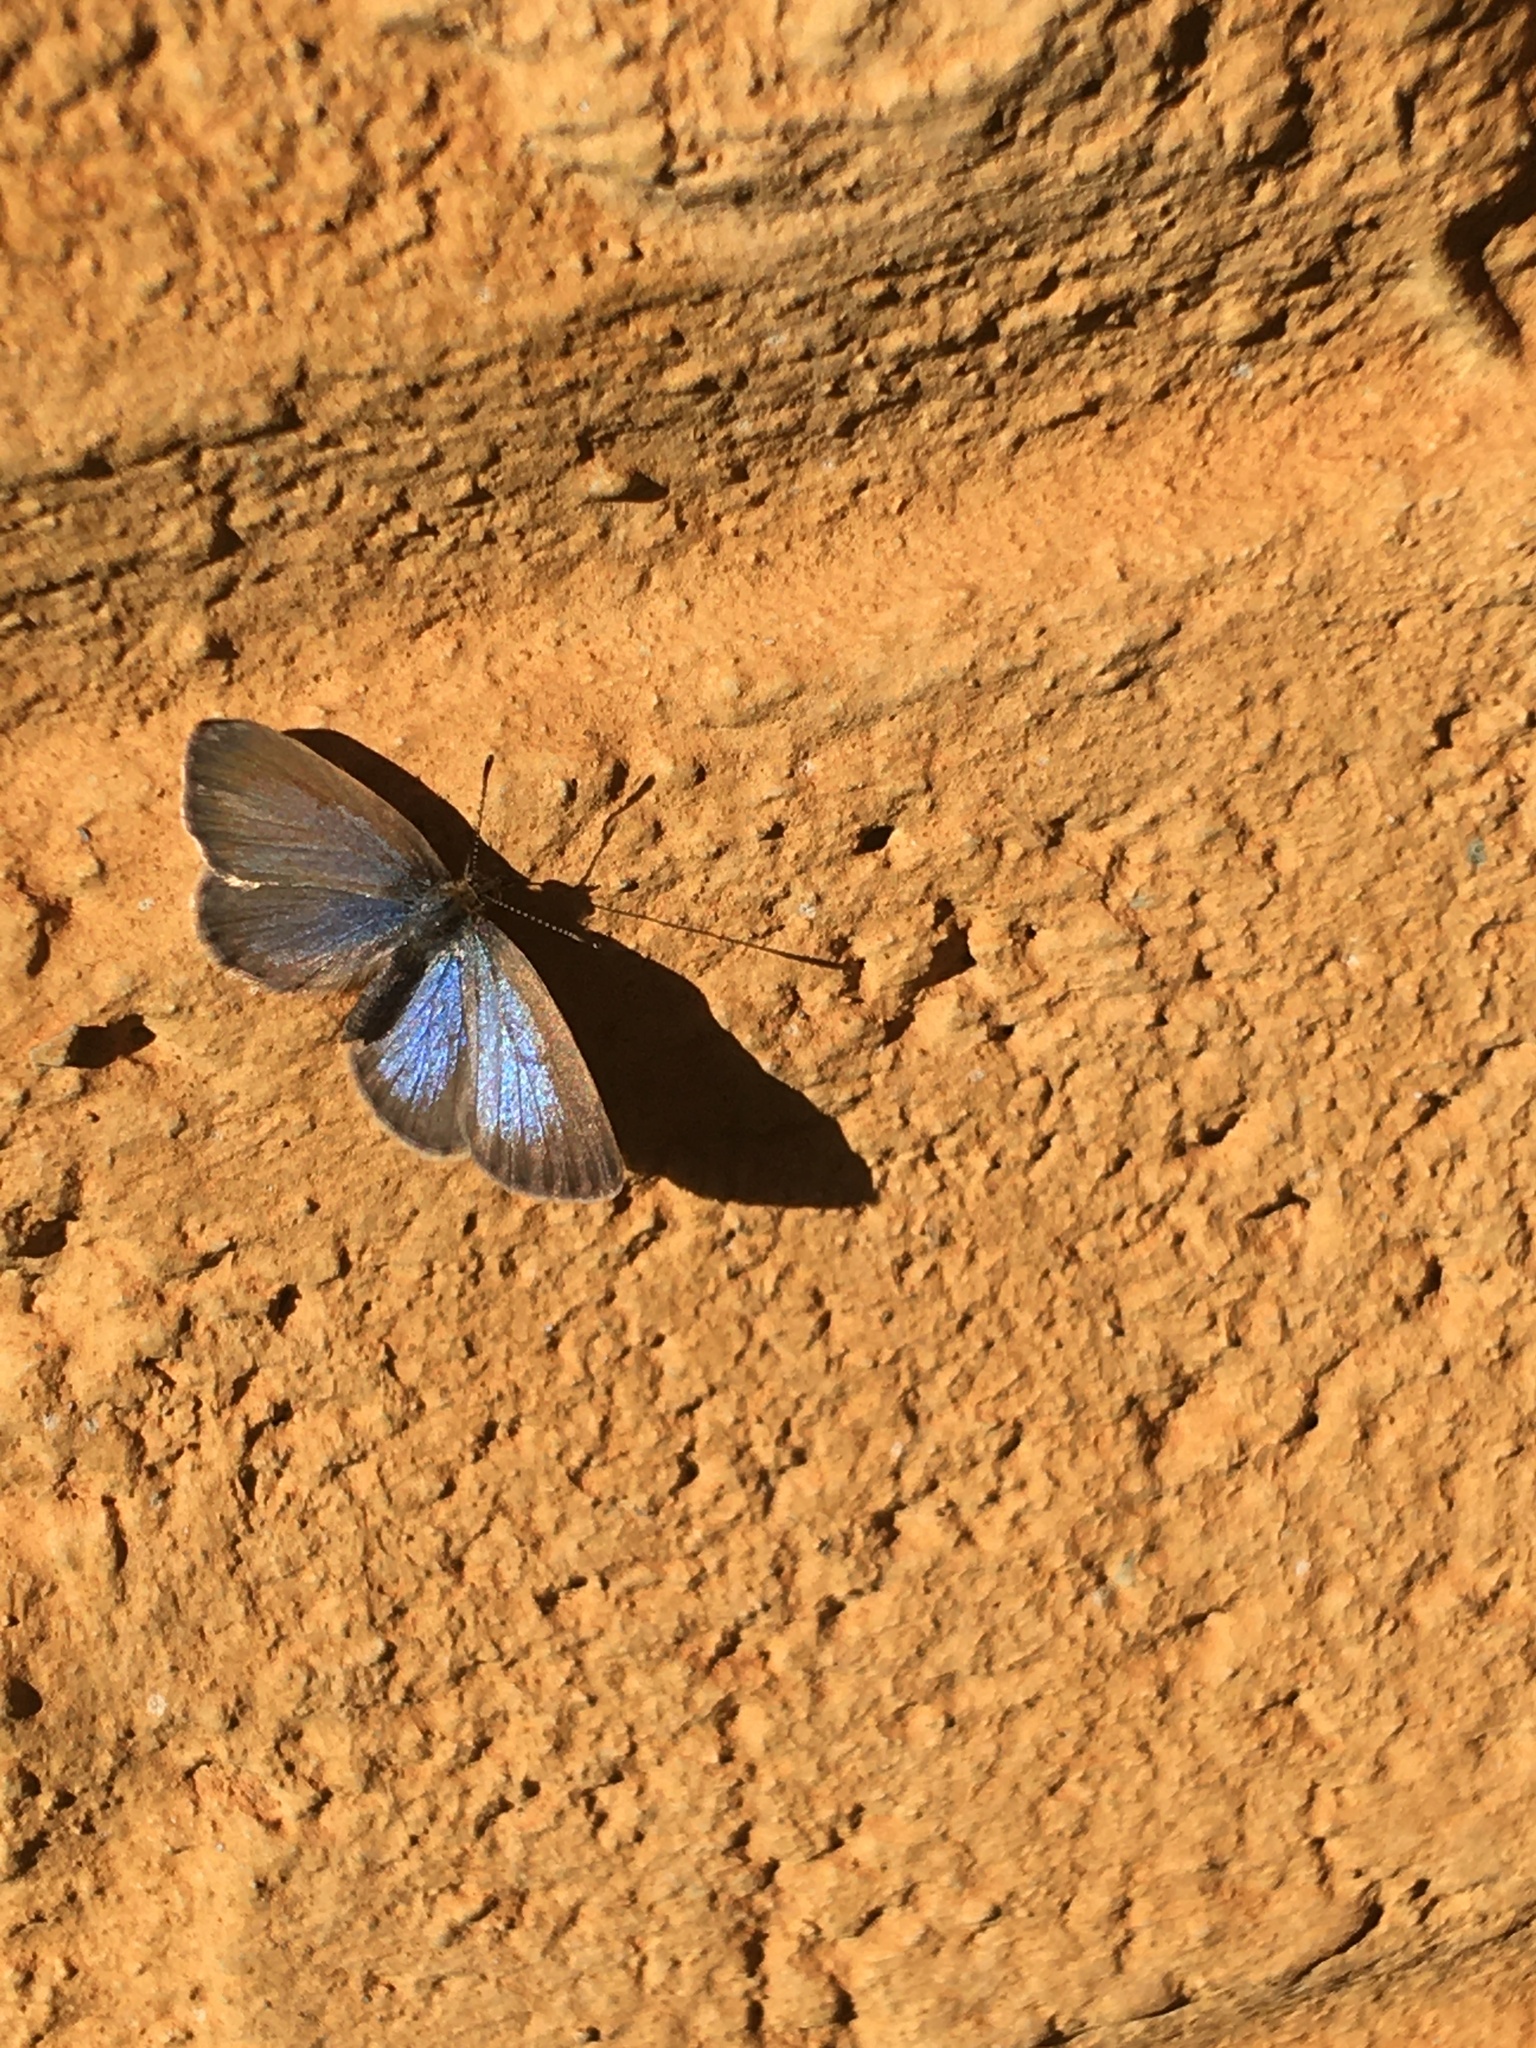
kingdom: Animalia
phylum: Arthropoda
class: Insecta
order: Lepidoptera
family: Lycaenidae
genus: Zizeeria
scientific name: Zizeeria knysna
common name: African grass blue
